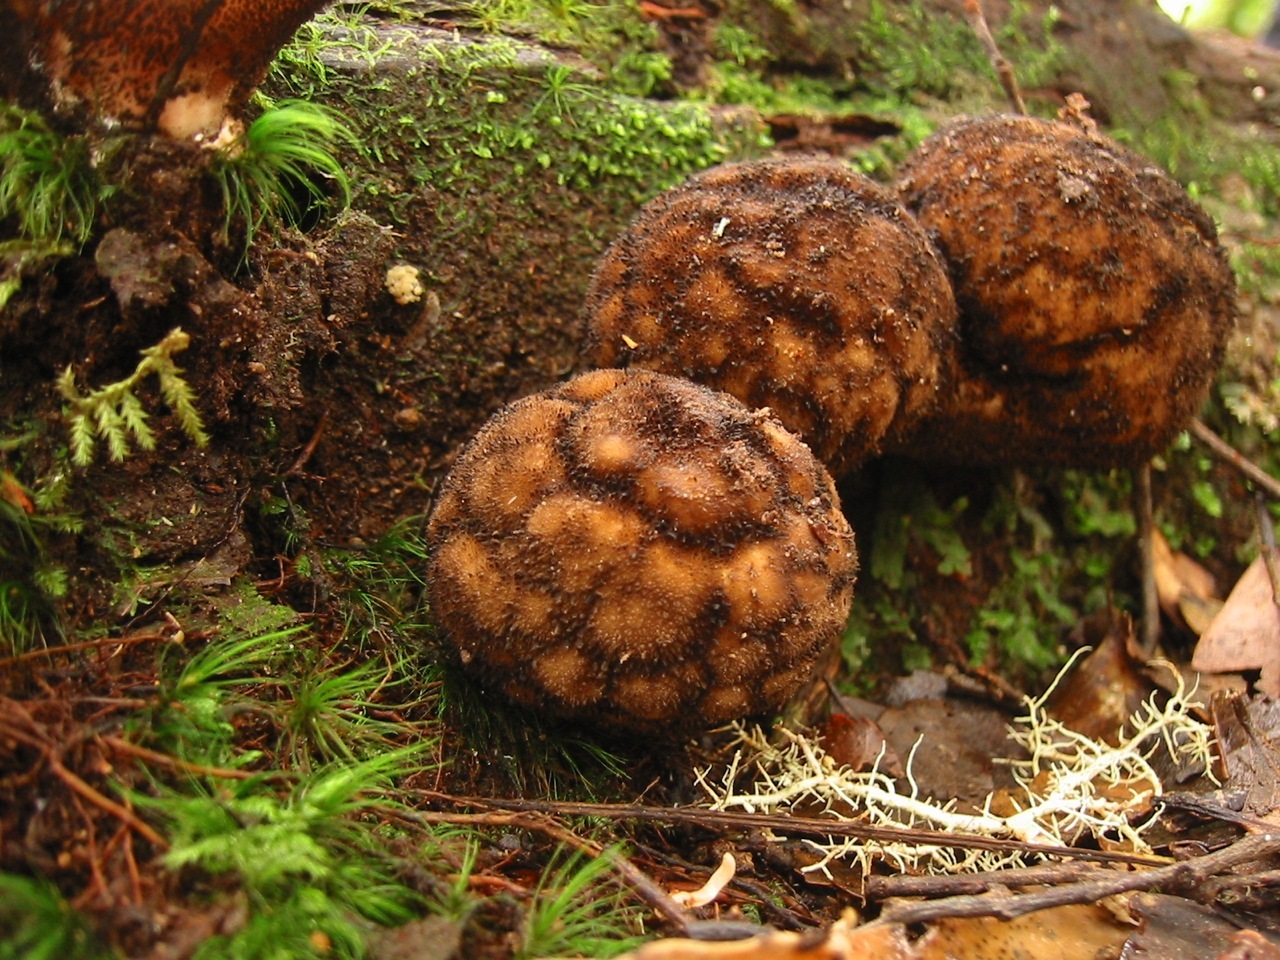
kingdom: Fungi
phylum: Basidiomycota
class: Agaricomycetes
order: Agaricales
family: Lycoperdaceae
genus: Lycoperdon
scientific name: Lycoperdon compactum
